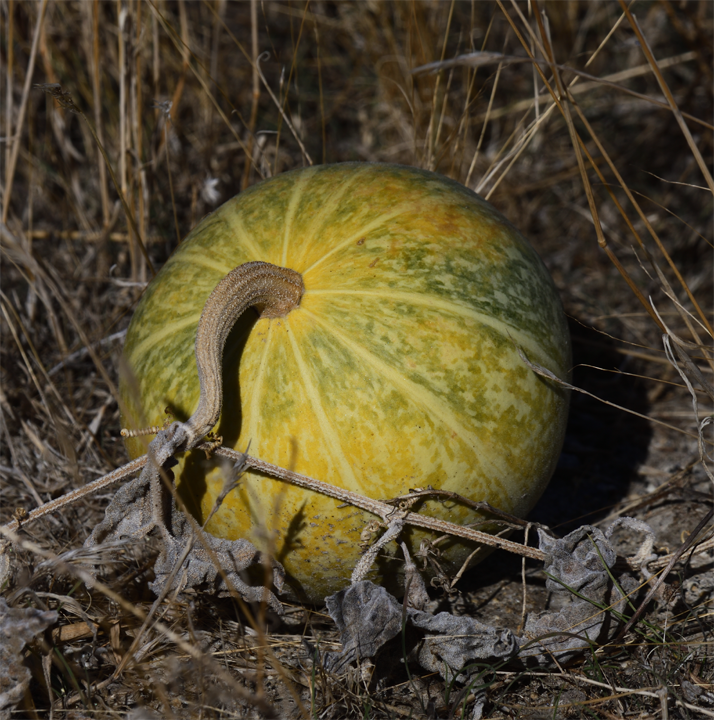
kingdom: Plantae
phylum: Tracheophyta
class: Magnoliopsida
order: Cucurbitales
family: Cucurbitaceae
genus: Cucurbita
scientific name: Cucurbita palmata
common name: Coyote-melon
